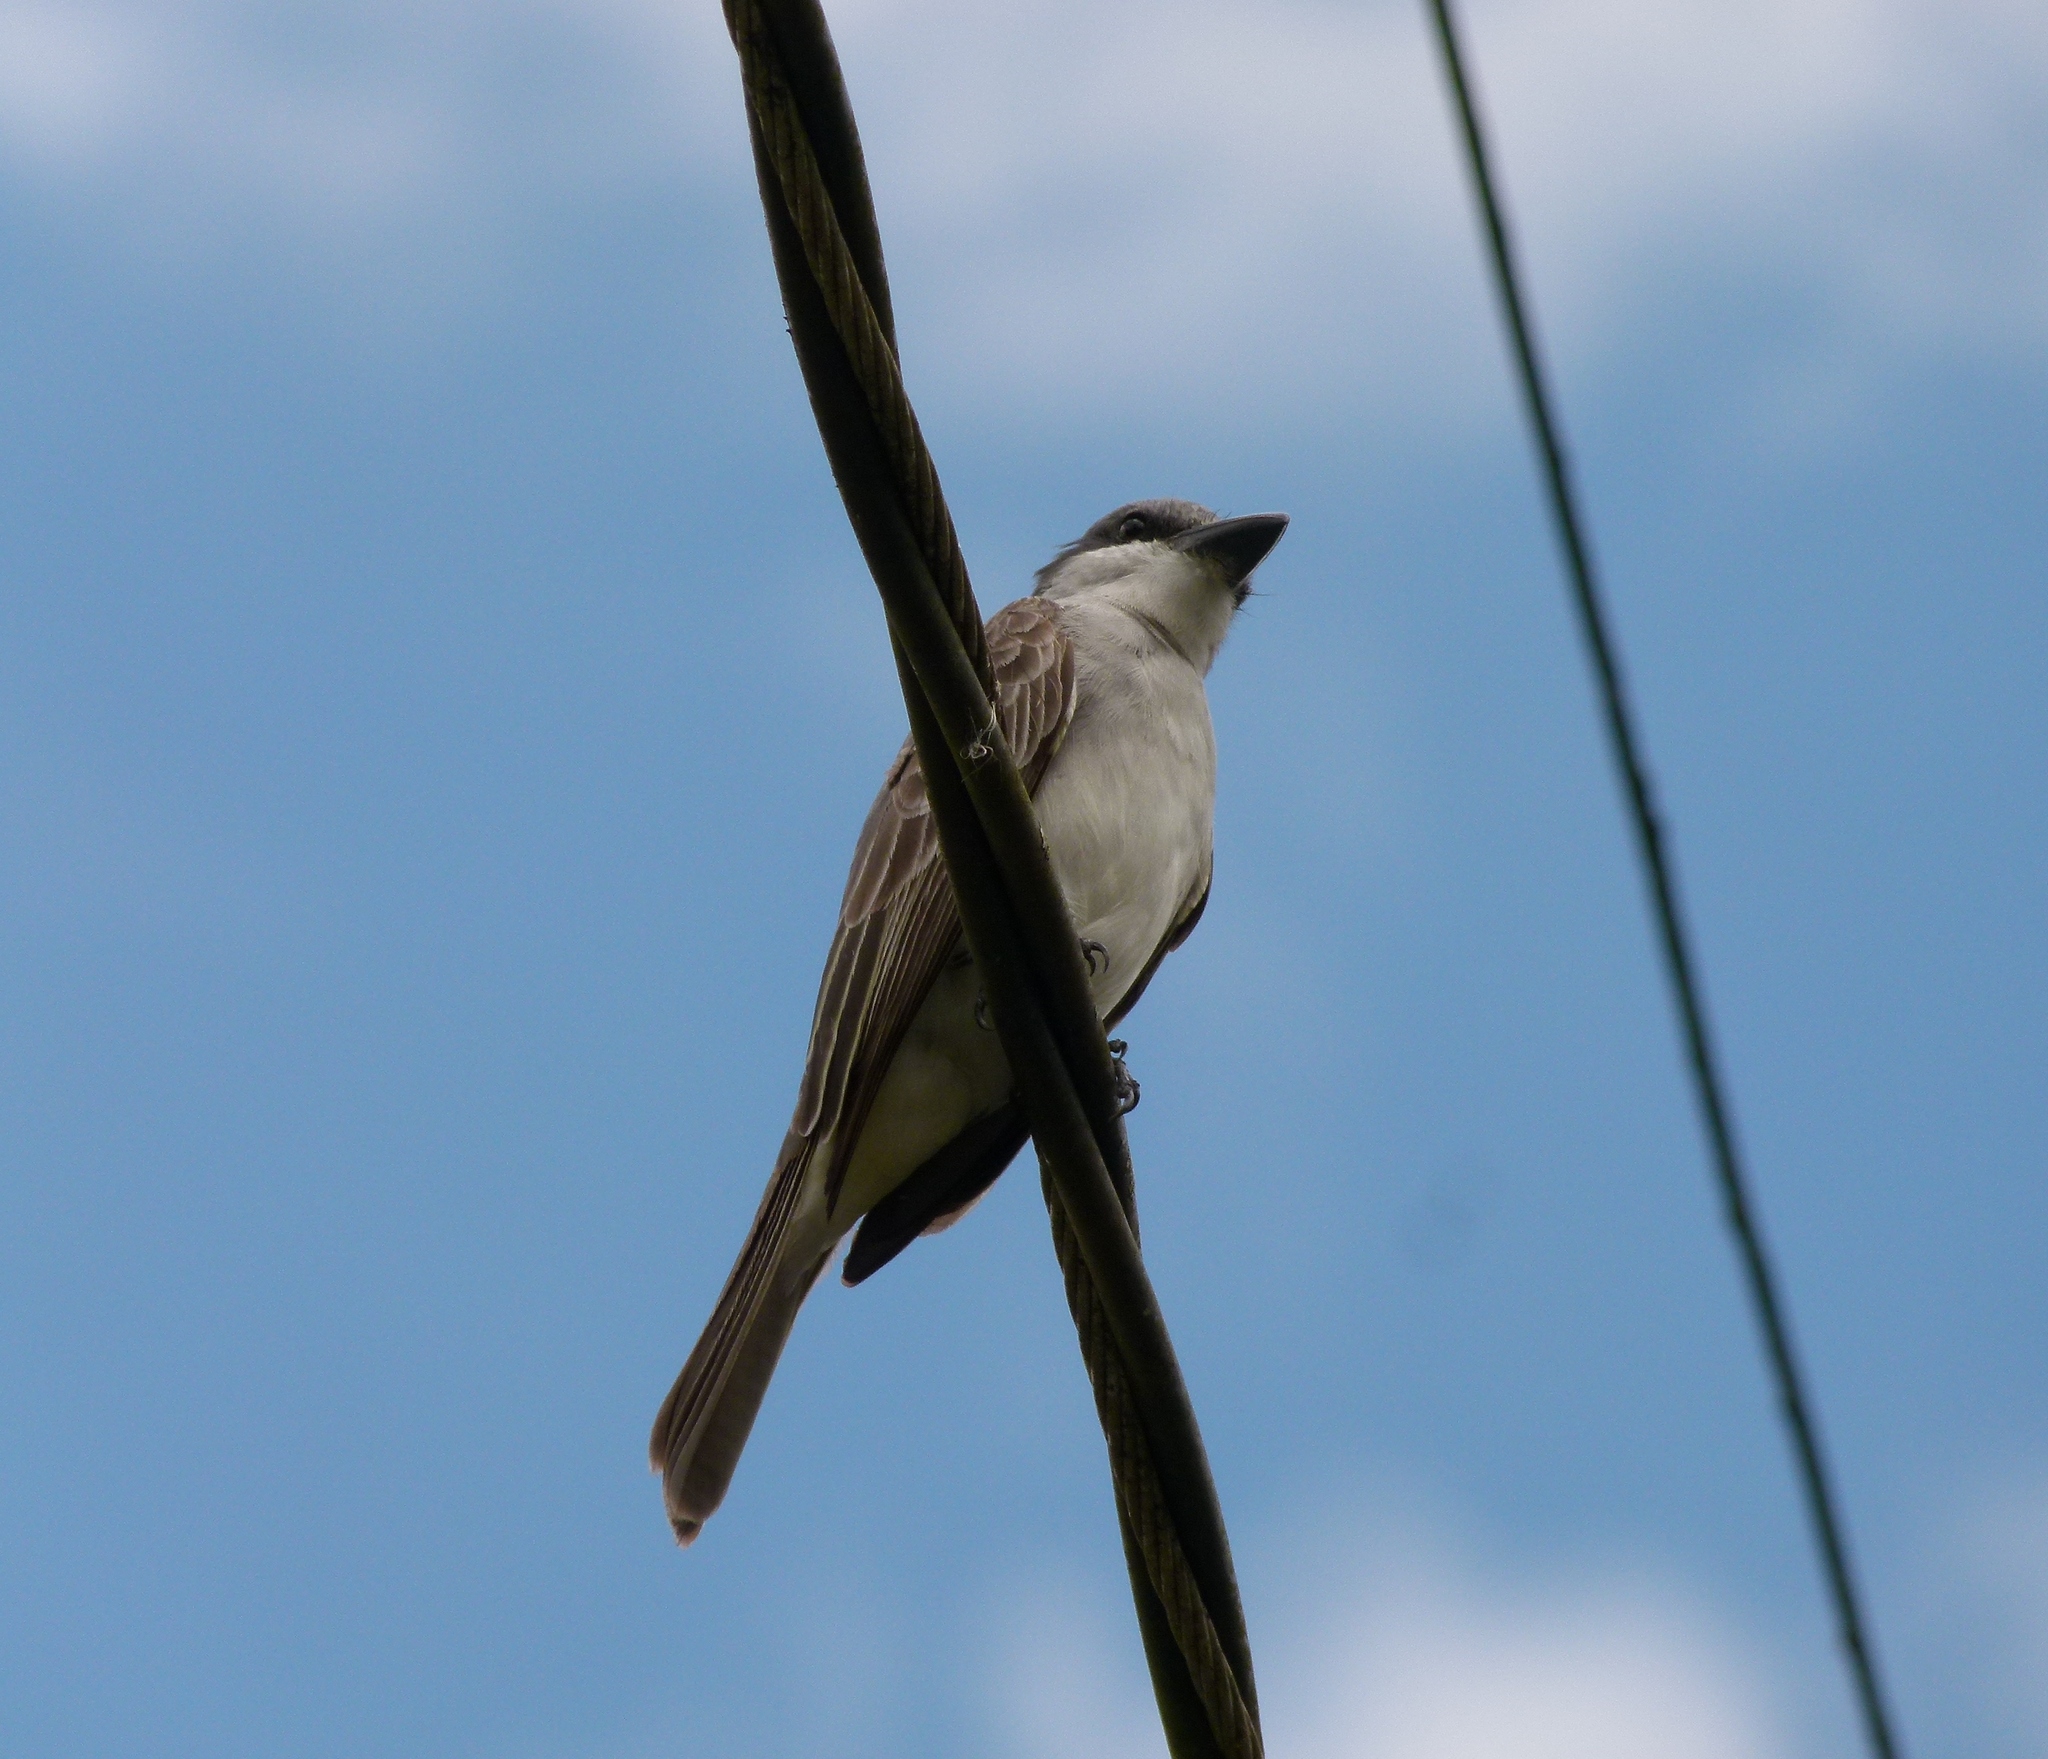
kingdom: Animalia
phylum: Chordata
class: Aves
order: Passeriformes
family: Tyrannidae
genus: Tyrannus
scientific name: Tyrannus dominicensis
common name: Gray kingbird
